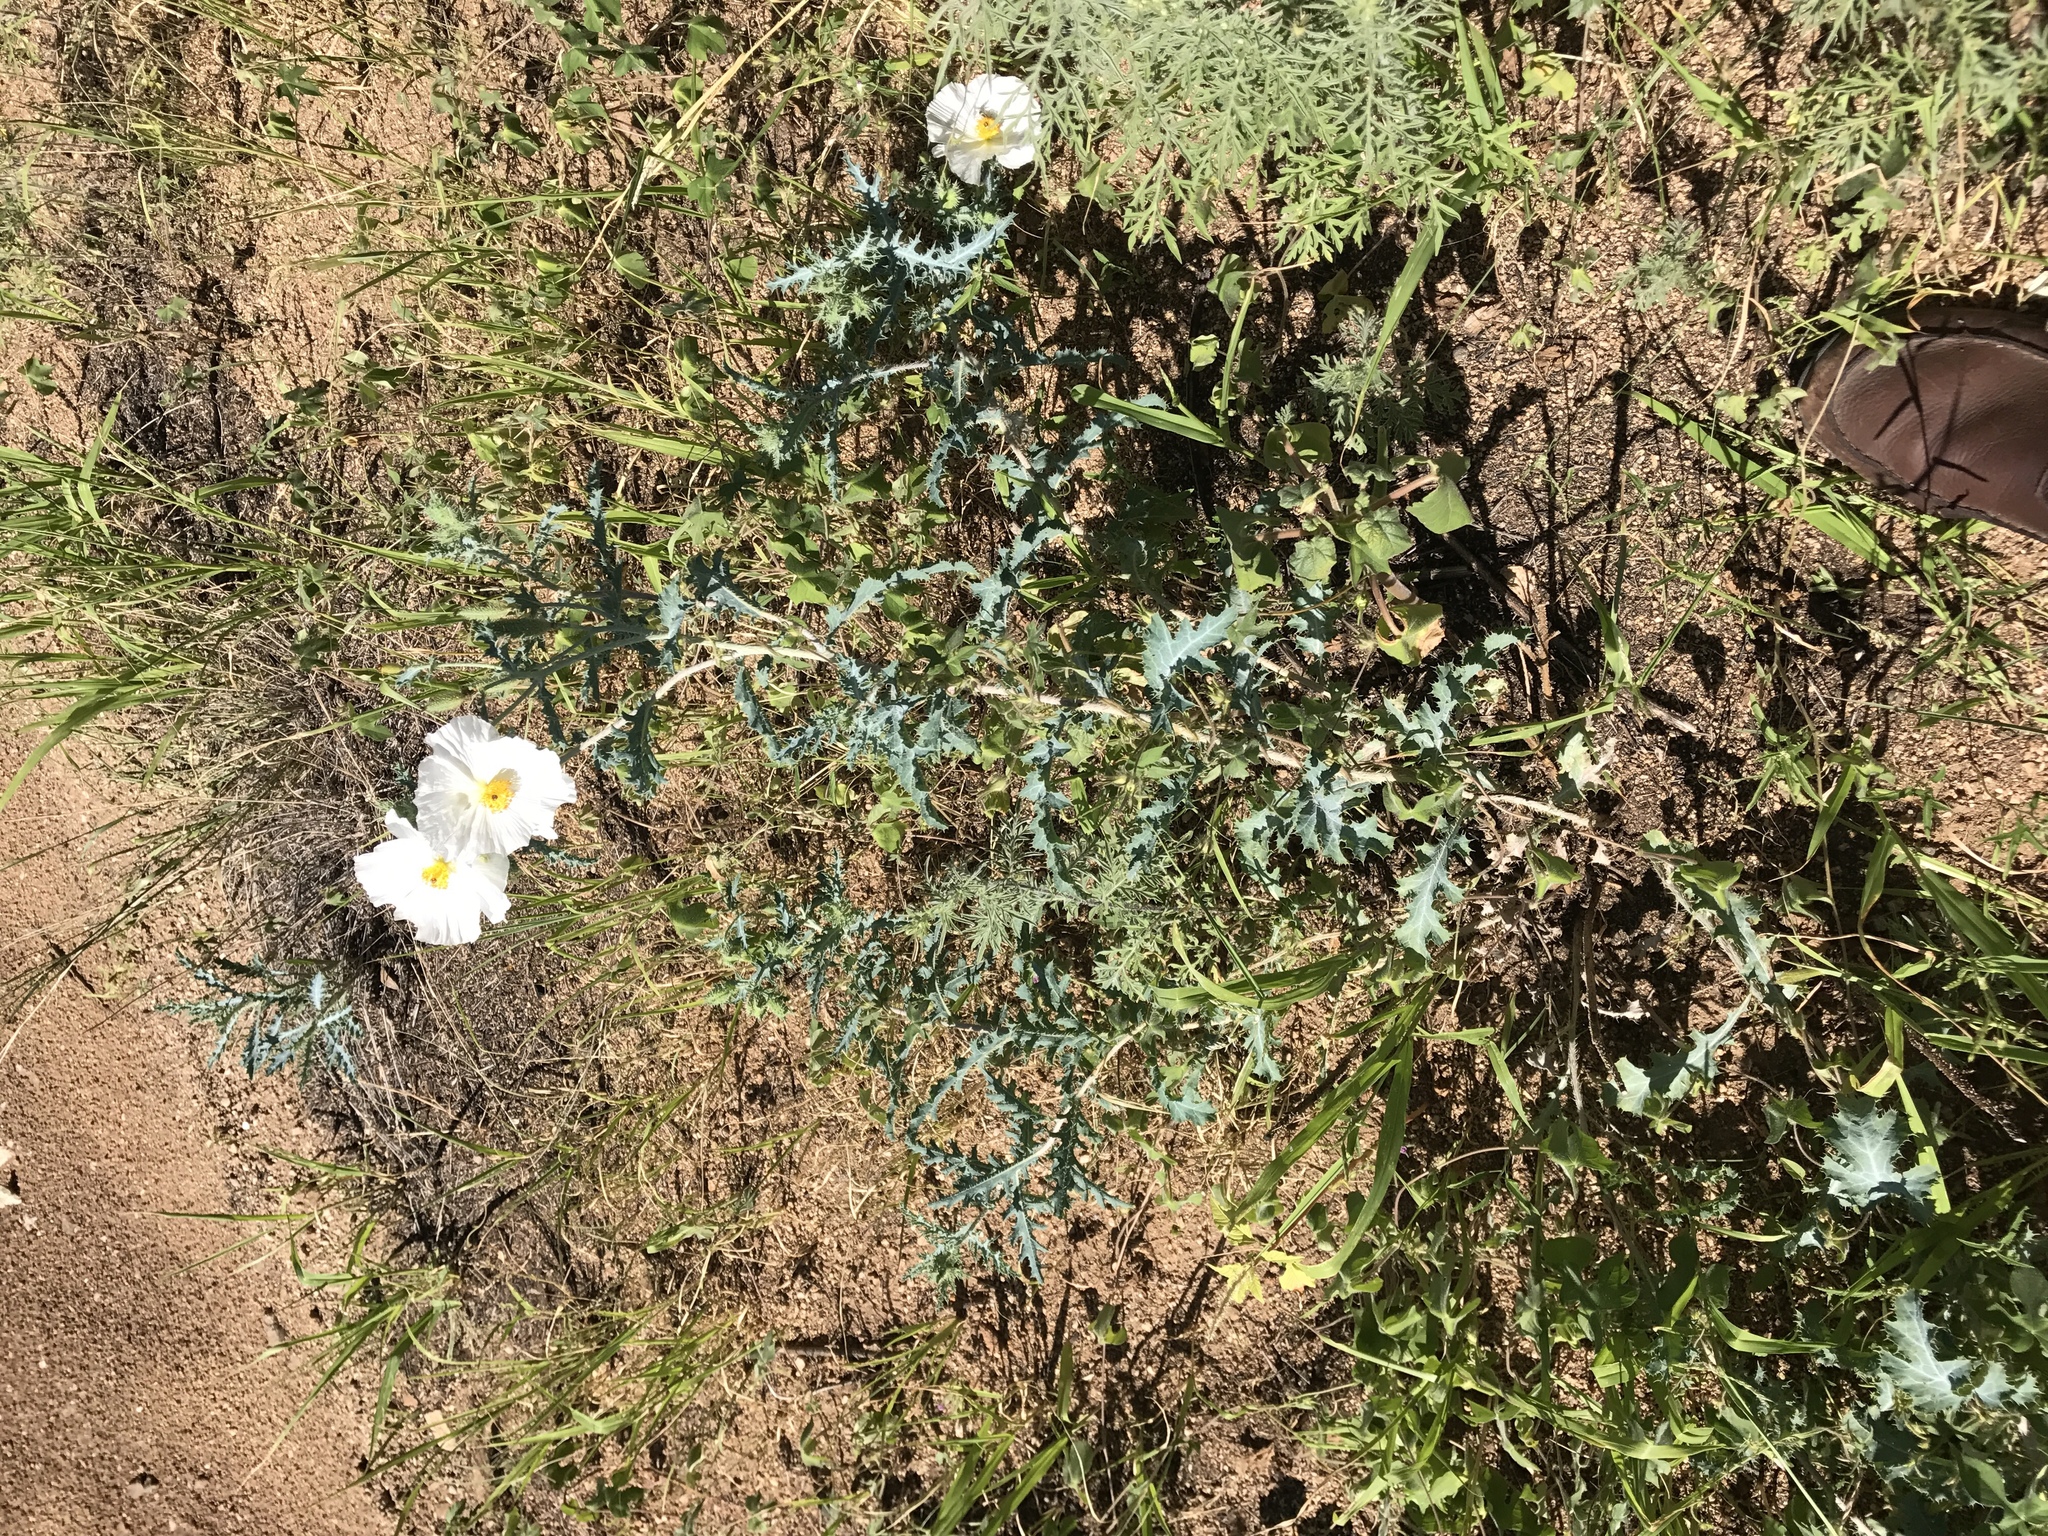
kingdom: Plantae
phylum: Tracheophyta
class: Magnoliopsida
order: Ranunculales
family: Papaveraceae
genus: Argemone
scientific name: Argemone pleiacantha
